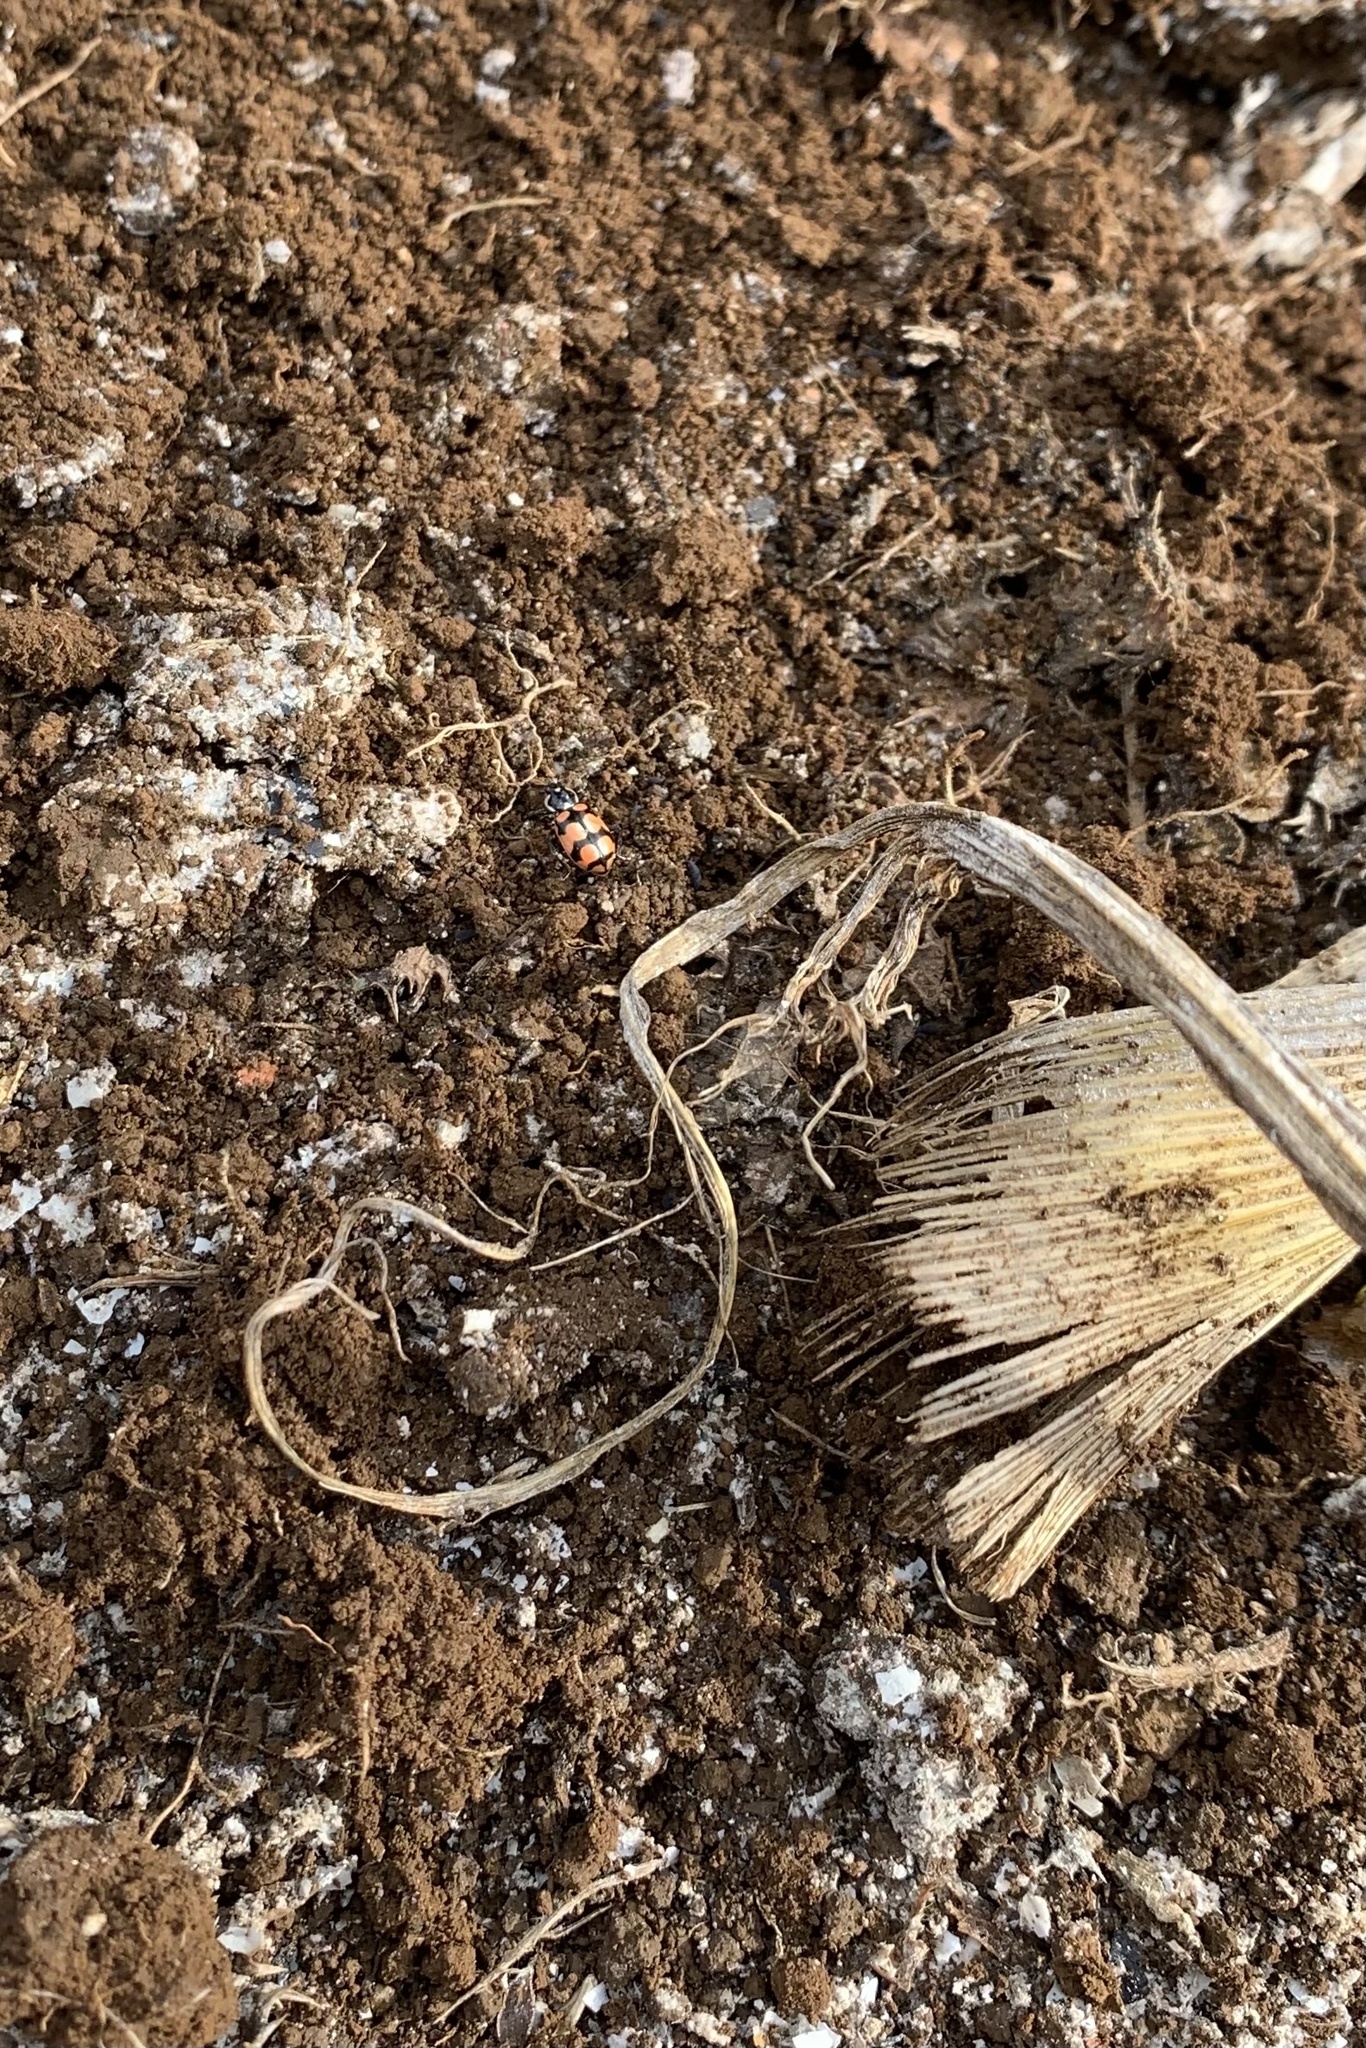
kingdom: Animalia
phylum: Arthropoda
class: Insecta
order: Coleoptera
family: Coccinellidae
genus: Eriopis
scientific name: Eriopis chilensis
